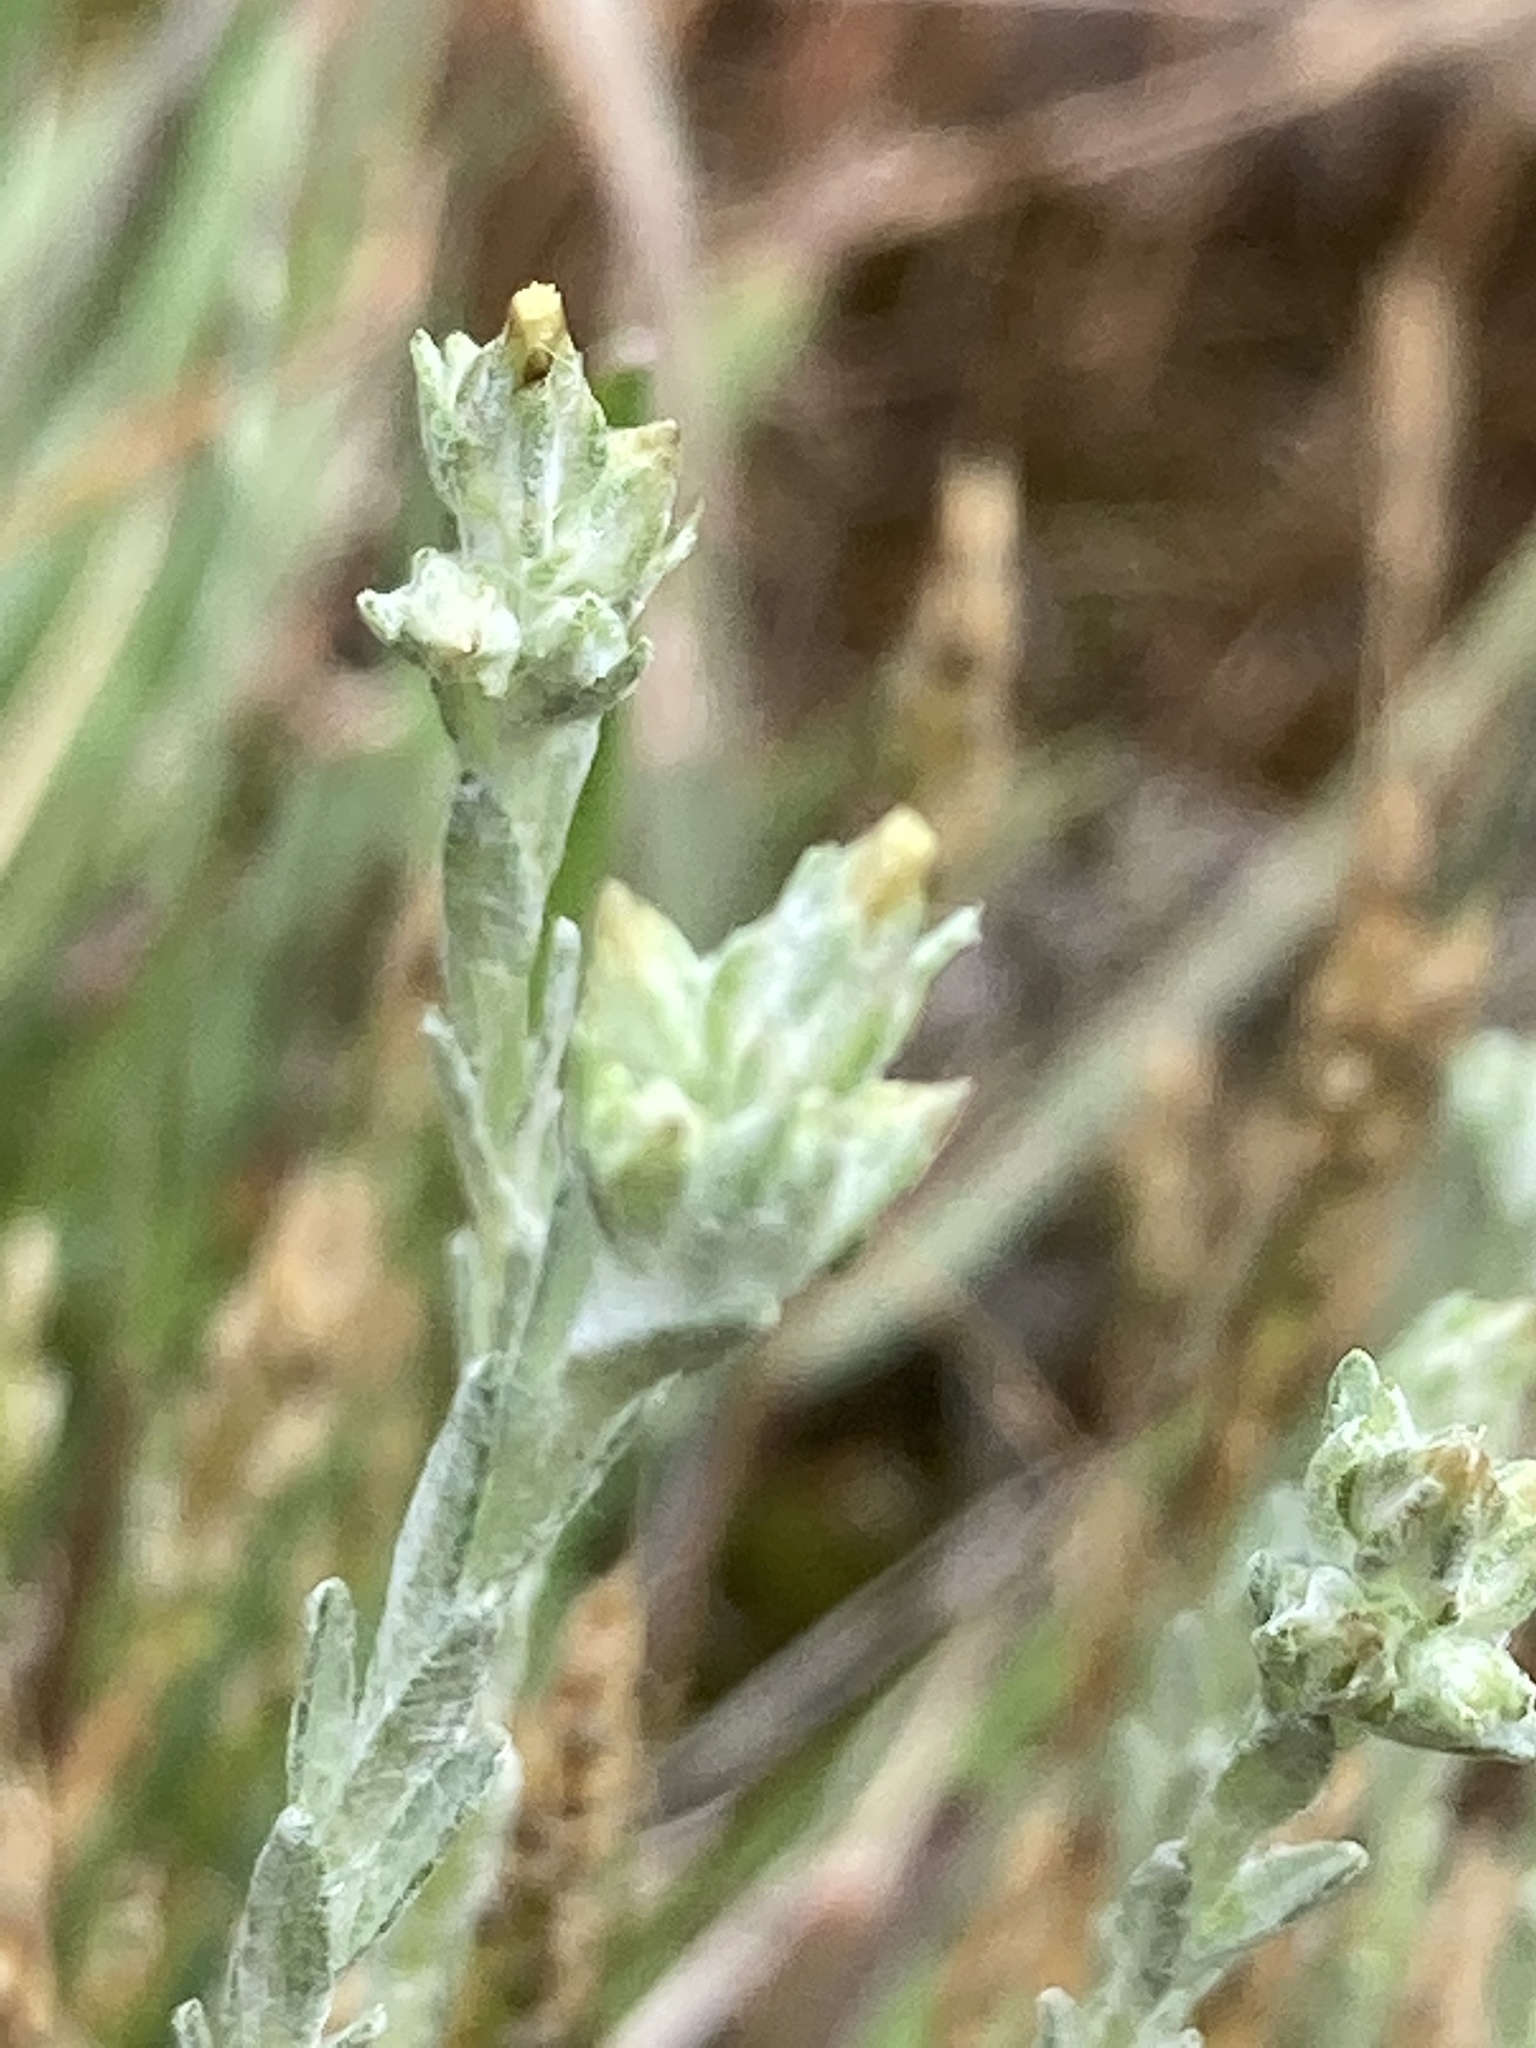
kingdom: Plantae
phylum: Tracheophyta
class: Magnoliopsida
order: Asterales
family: Asteraceae
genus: Logfia
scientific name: Logfia minima
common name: Little cottonrose
